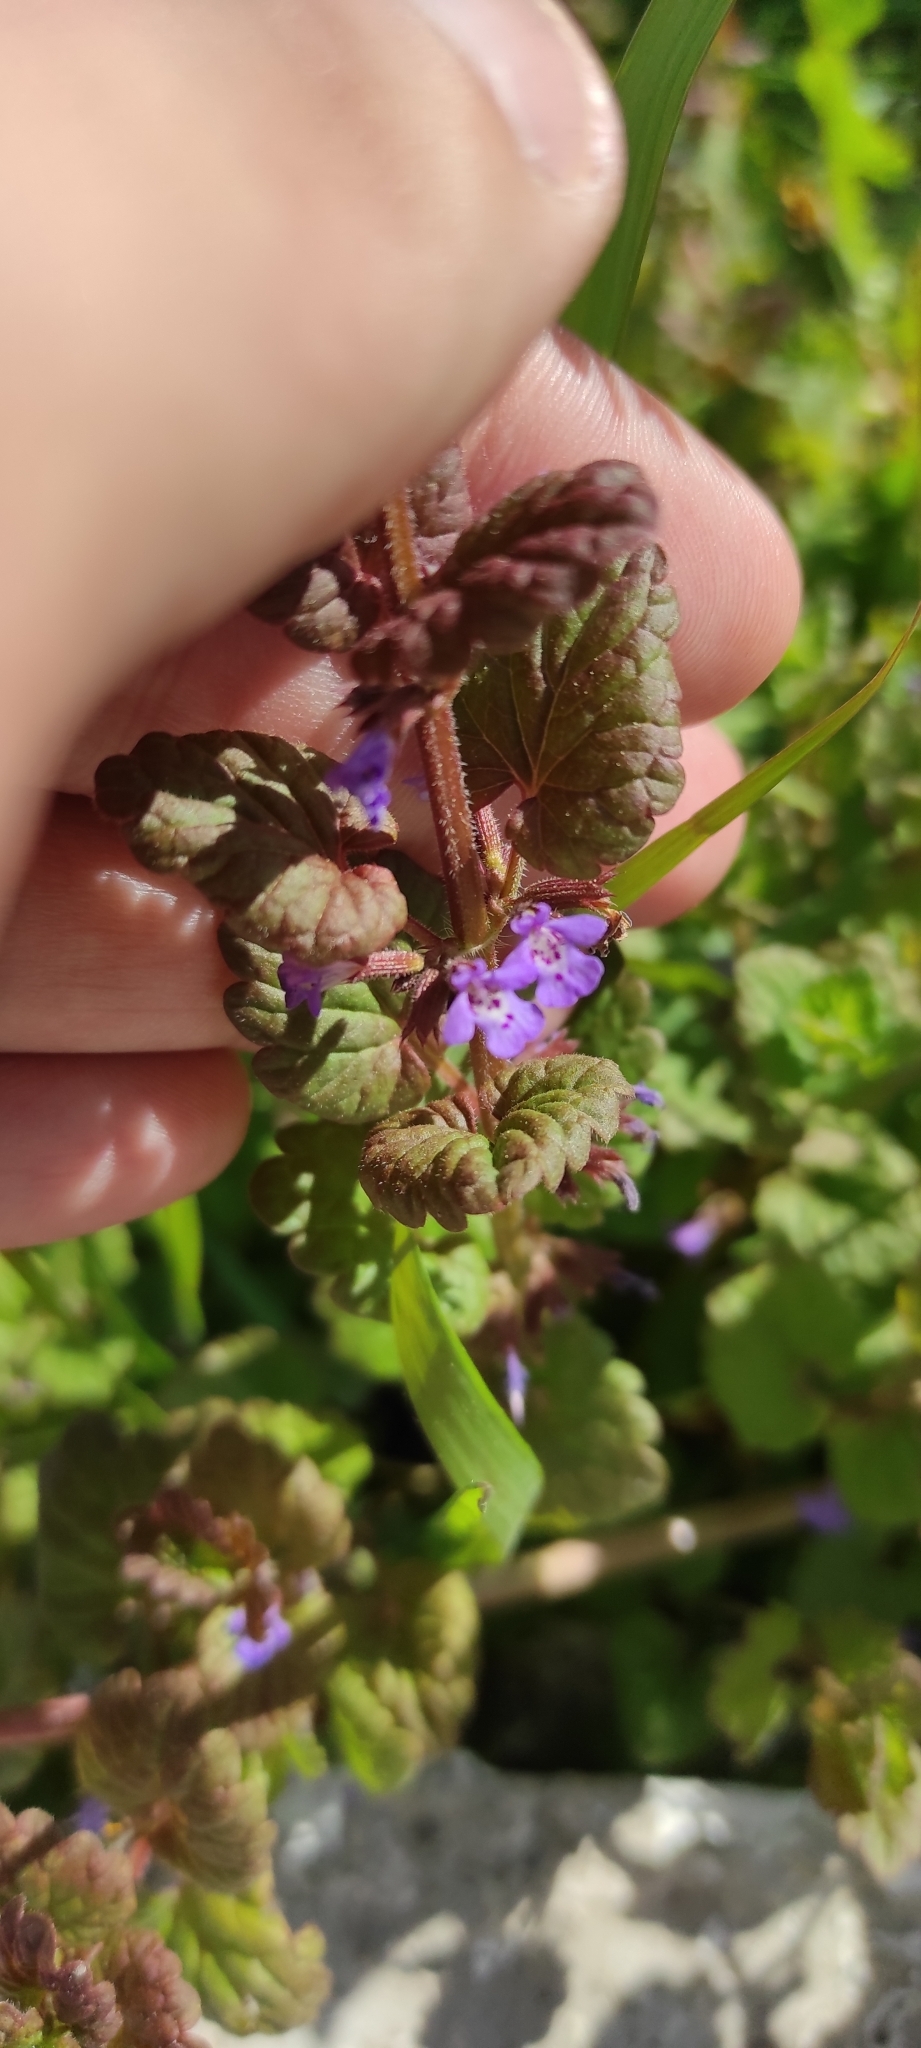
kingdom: Plantae
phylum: Tracheophyta
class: Magnoliopsida
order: Lamiales
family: Lamiaceae
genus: Glechoma
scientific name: Glechoma hederacea
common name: Ground ivy
